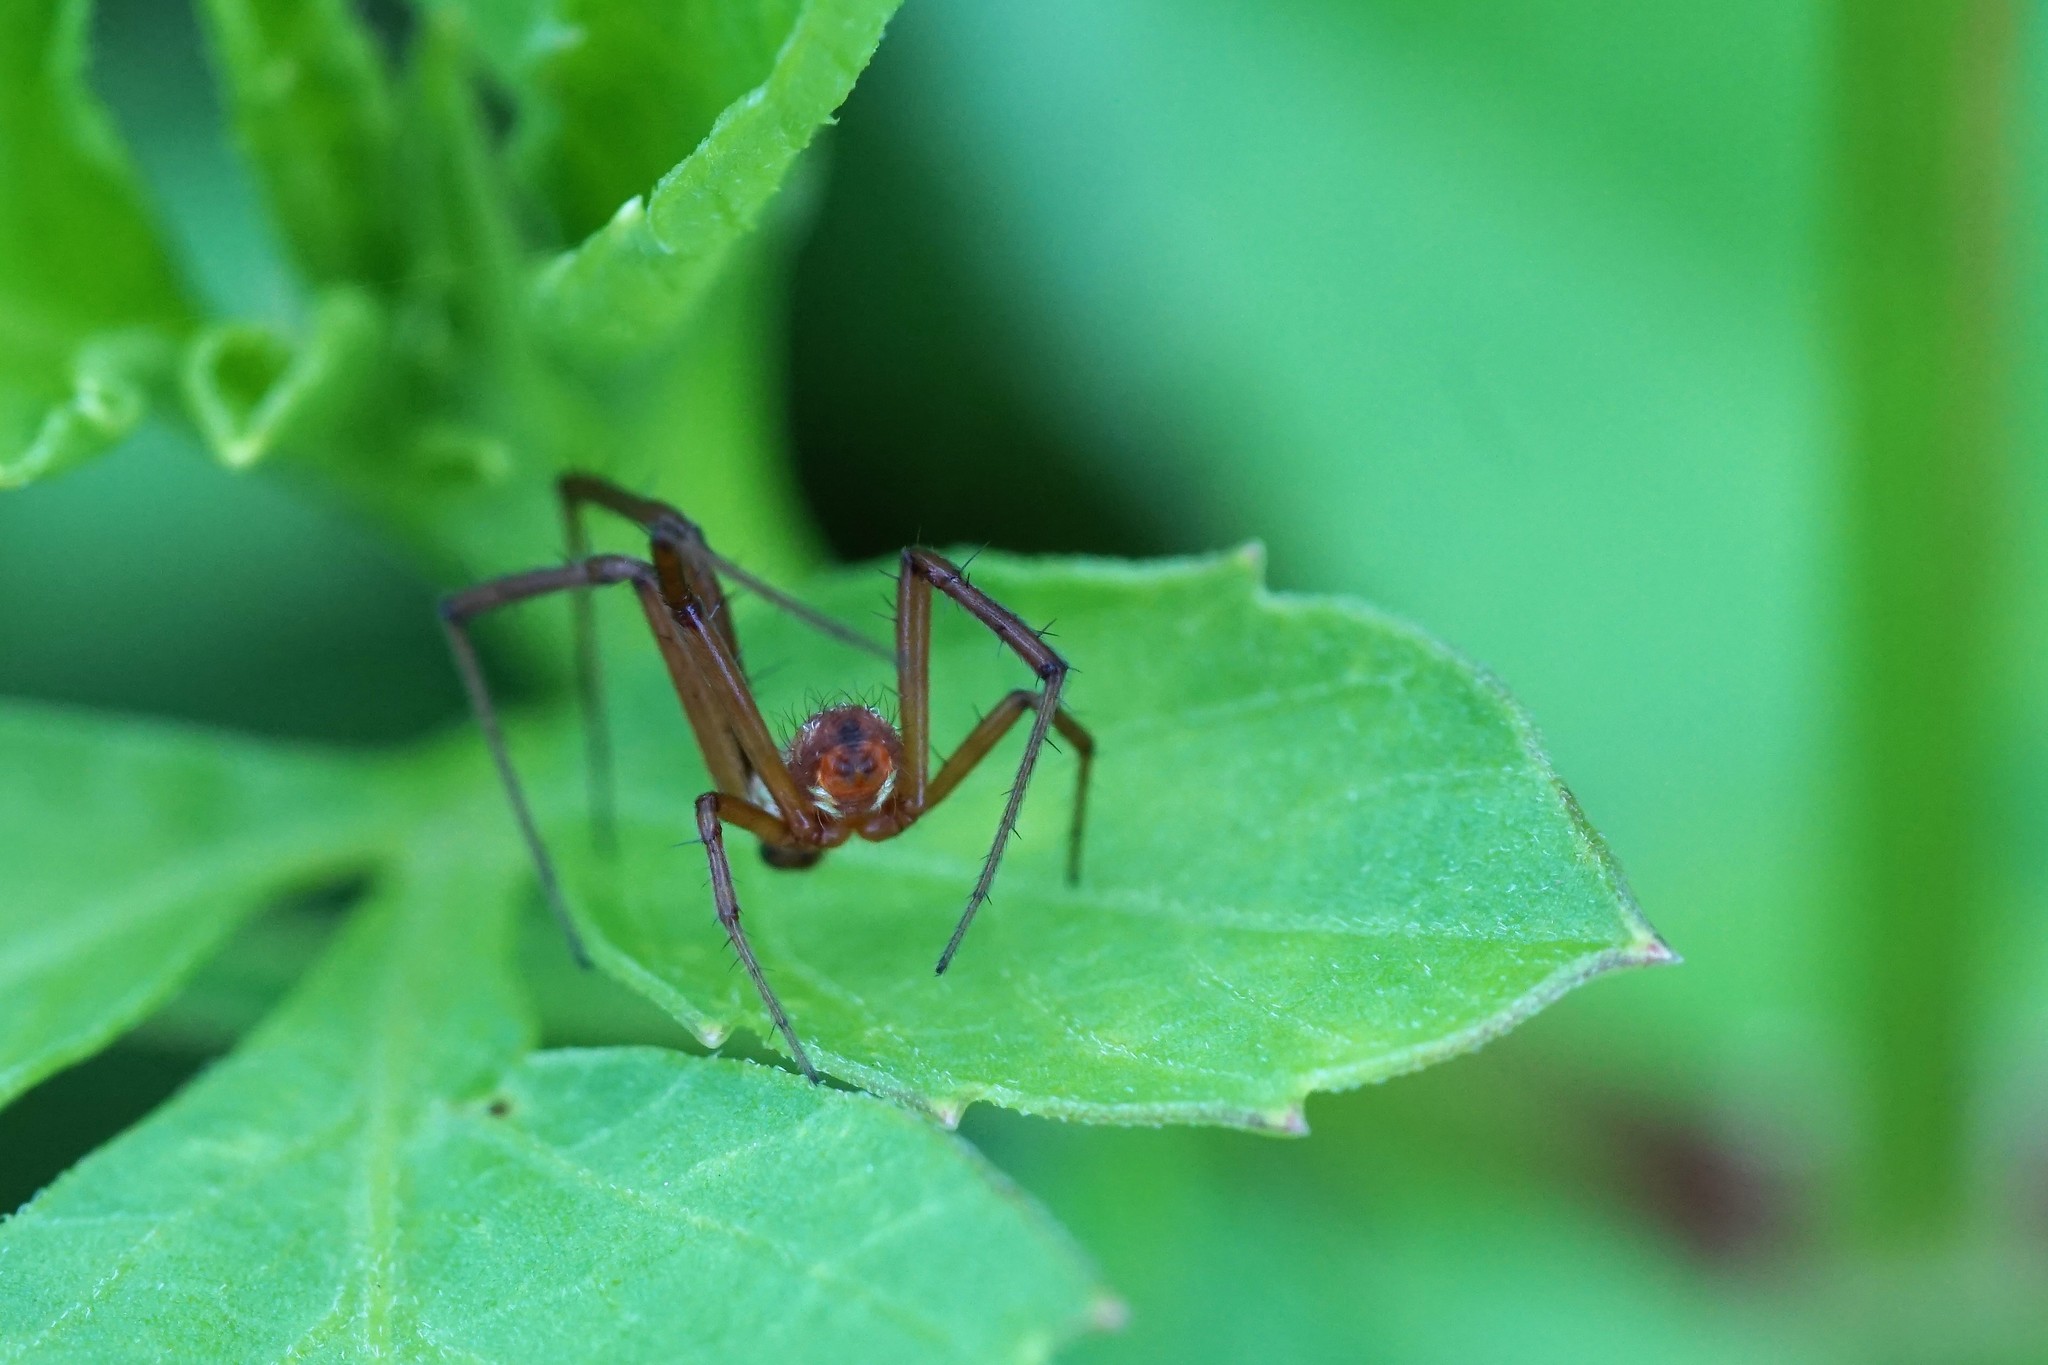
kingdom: Animalia
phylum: Arthropoda
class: Arachnida
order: Araneae
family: Araneidae
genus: Argiope
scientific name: Argiope trifasciata
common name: Banded garden spider
